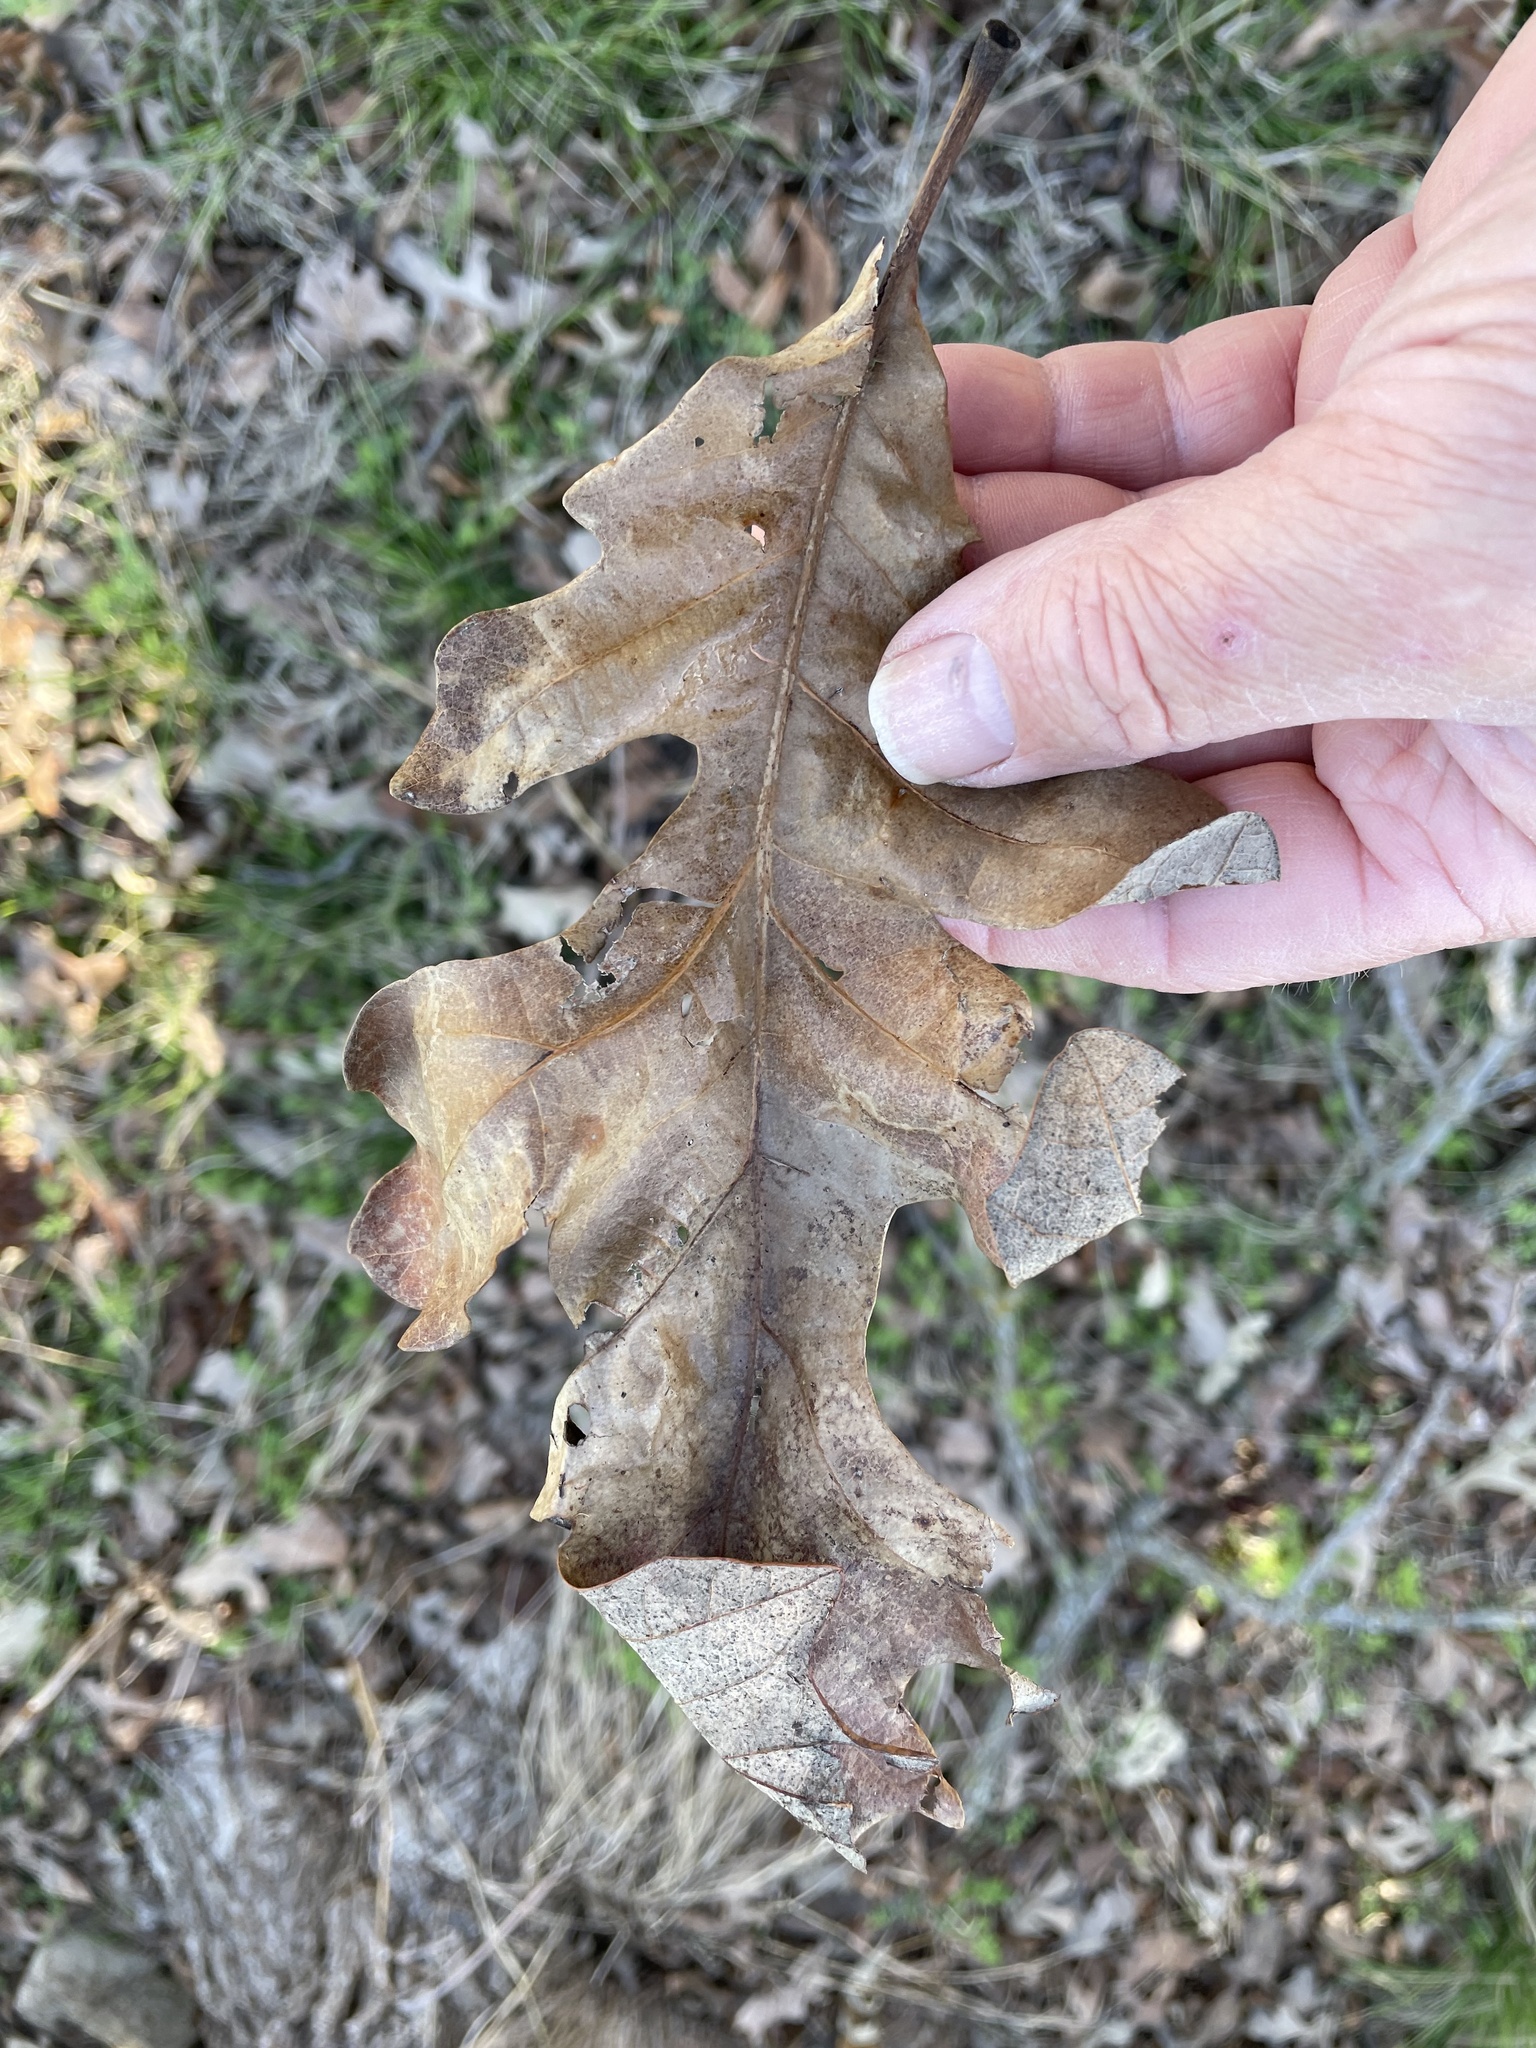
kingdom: Plantae
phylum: Tracheophyta
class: Magnoliopsida
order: Fagales
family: Fagaceae
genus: Quercus
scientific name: Quercus macrocarpa
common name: Bur oak
